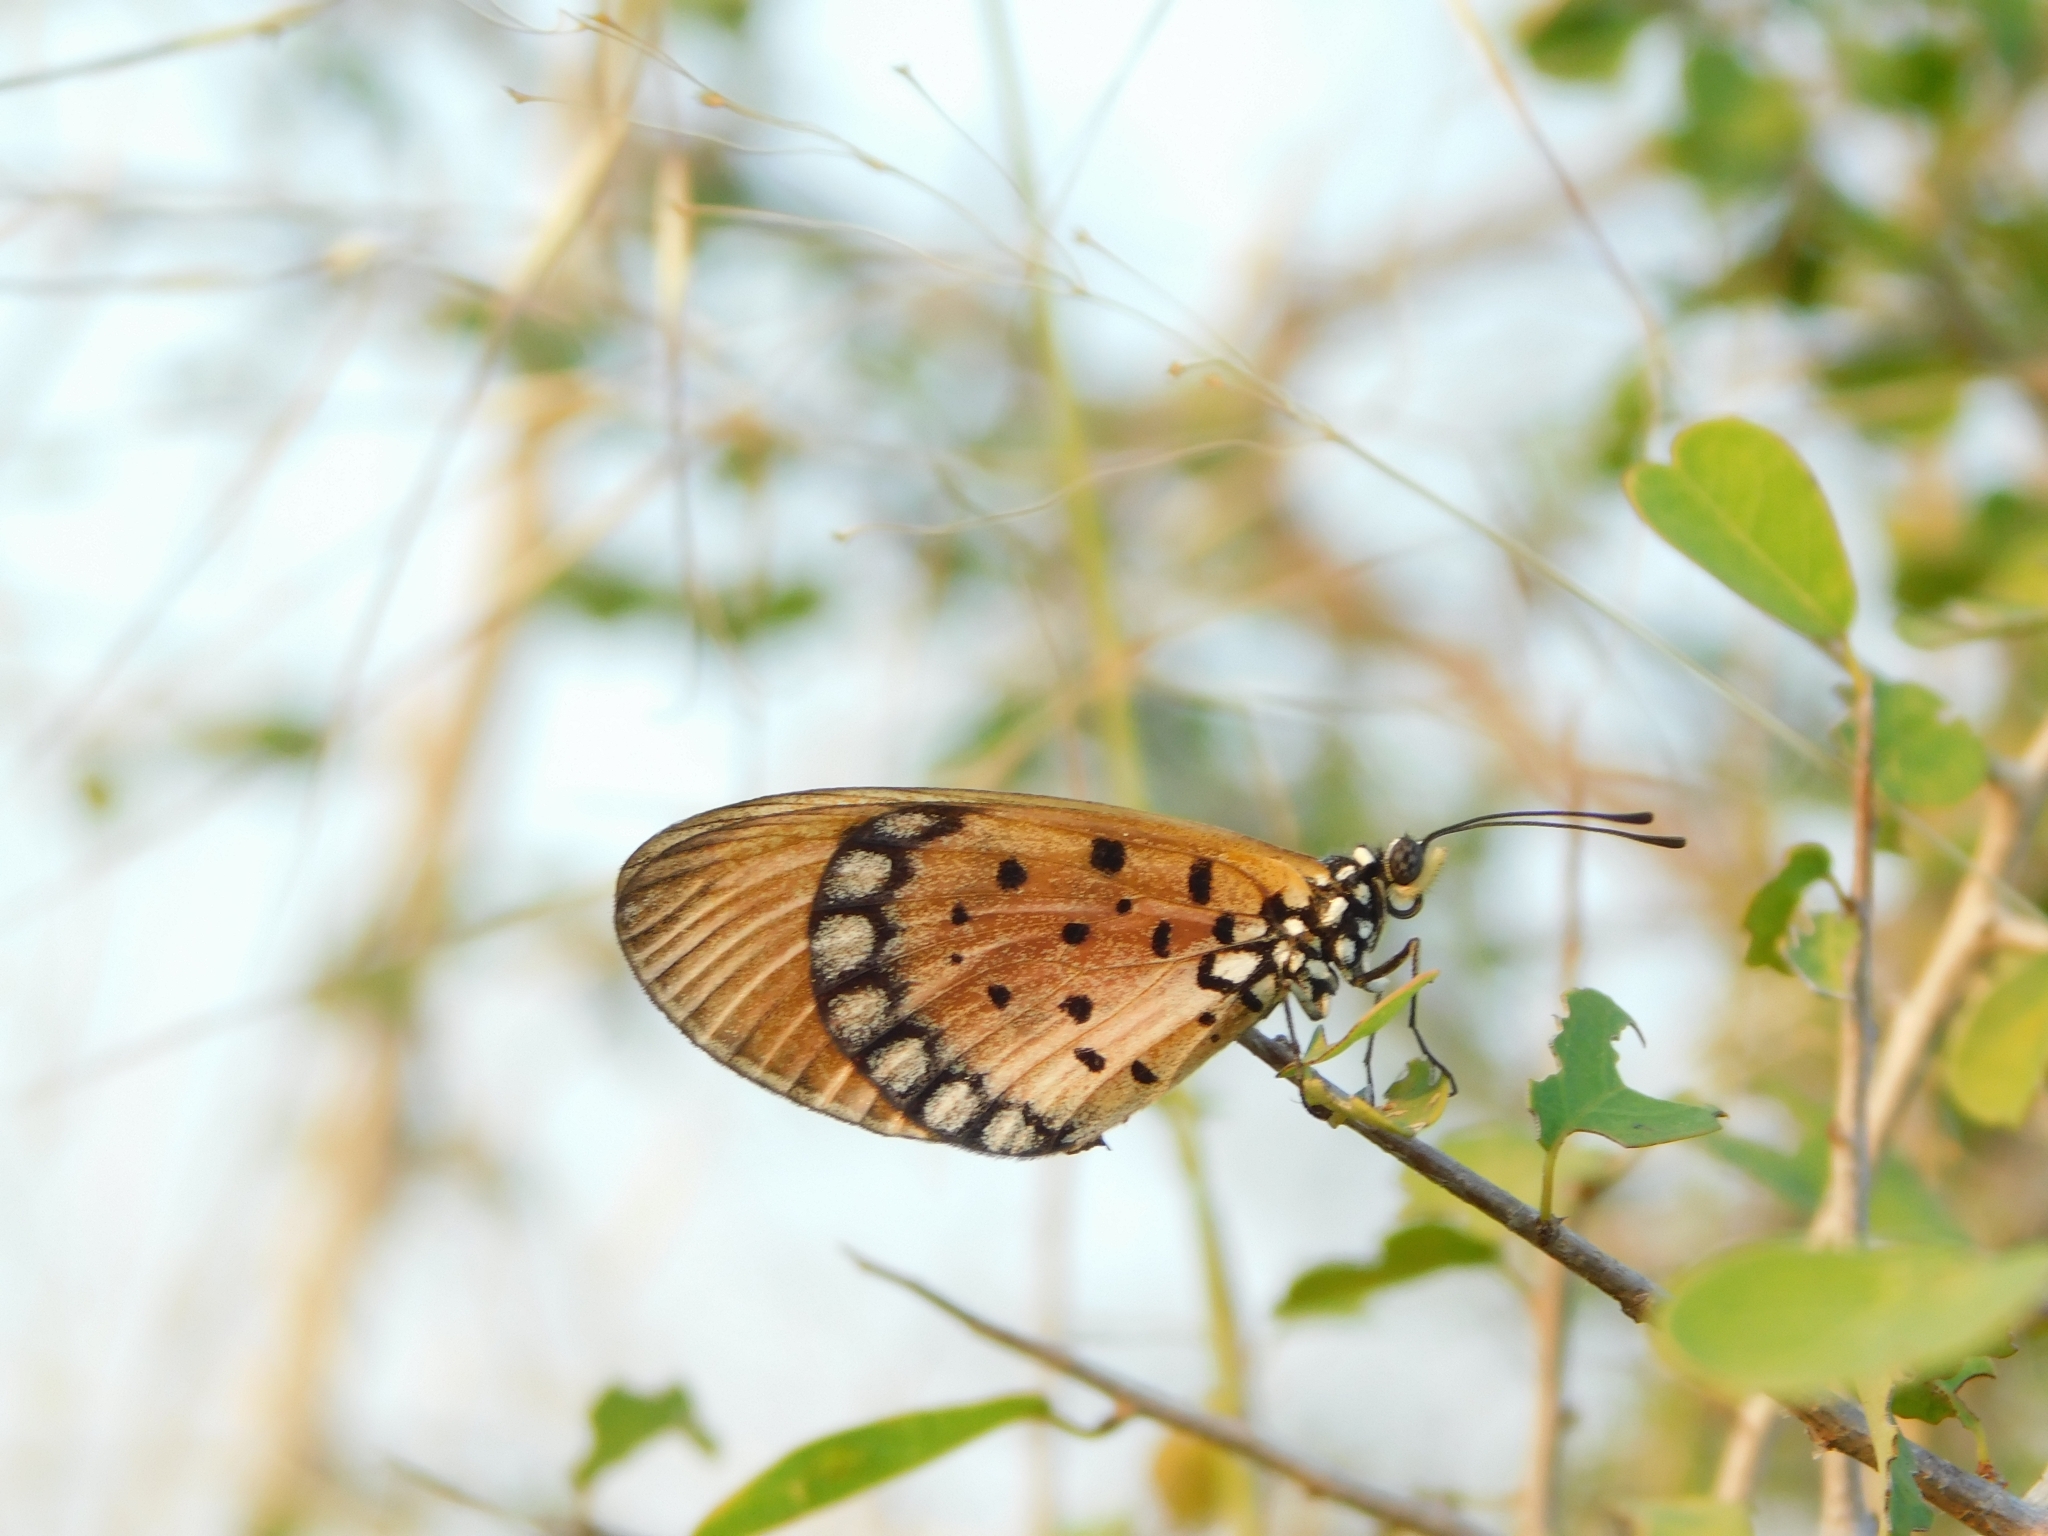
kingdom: Animalia
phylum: Arthropoda
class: Insecta
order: Lepidoptera
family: Nymphalidae
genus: Acraea
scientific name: Acraea terpsicore
